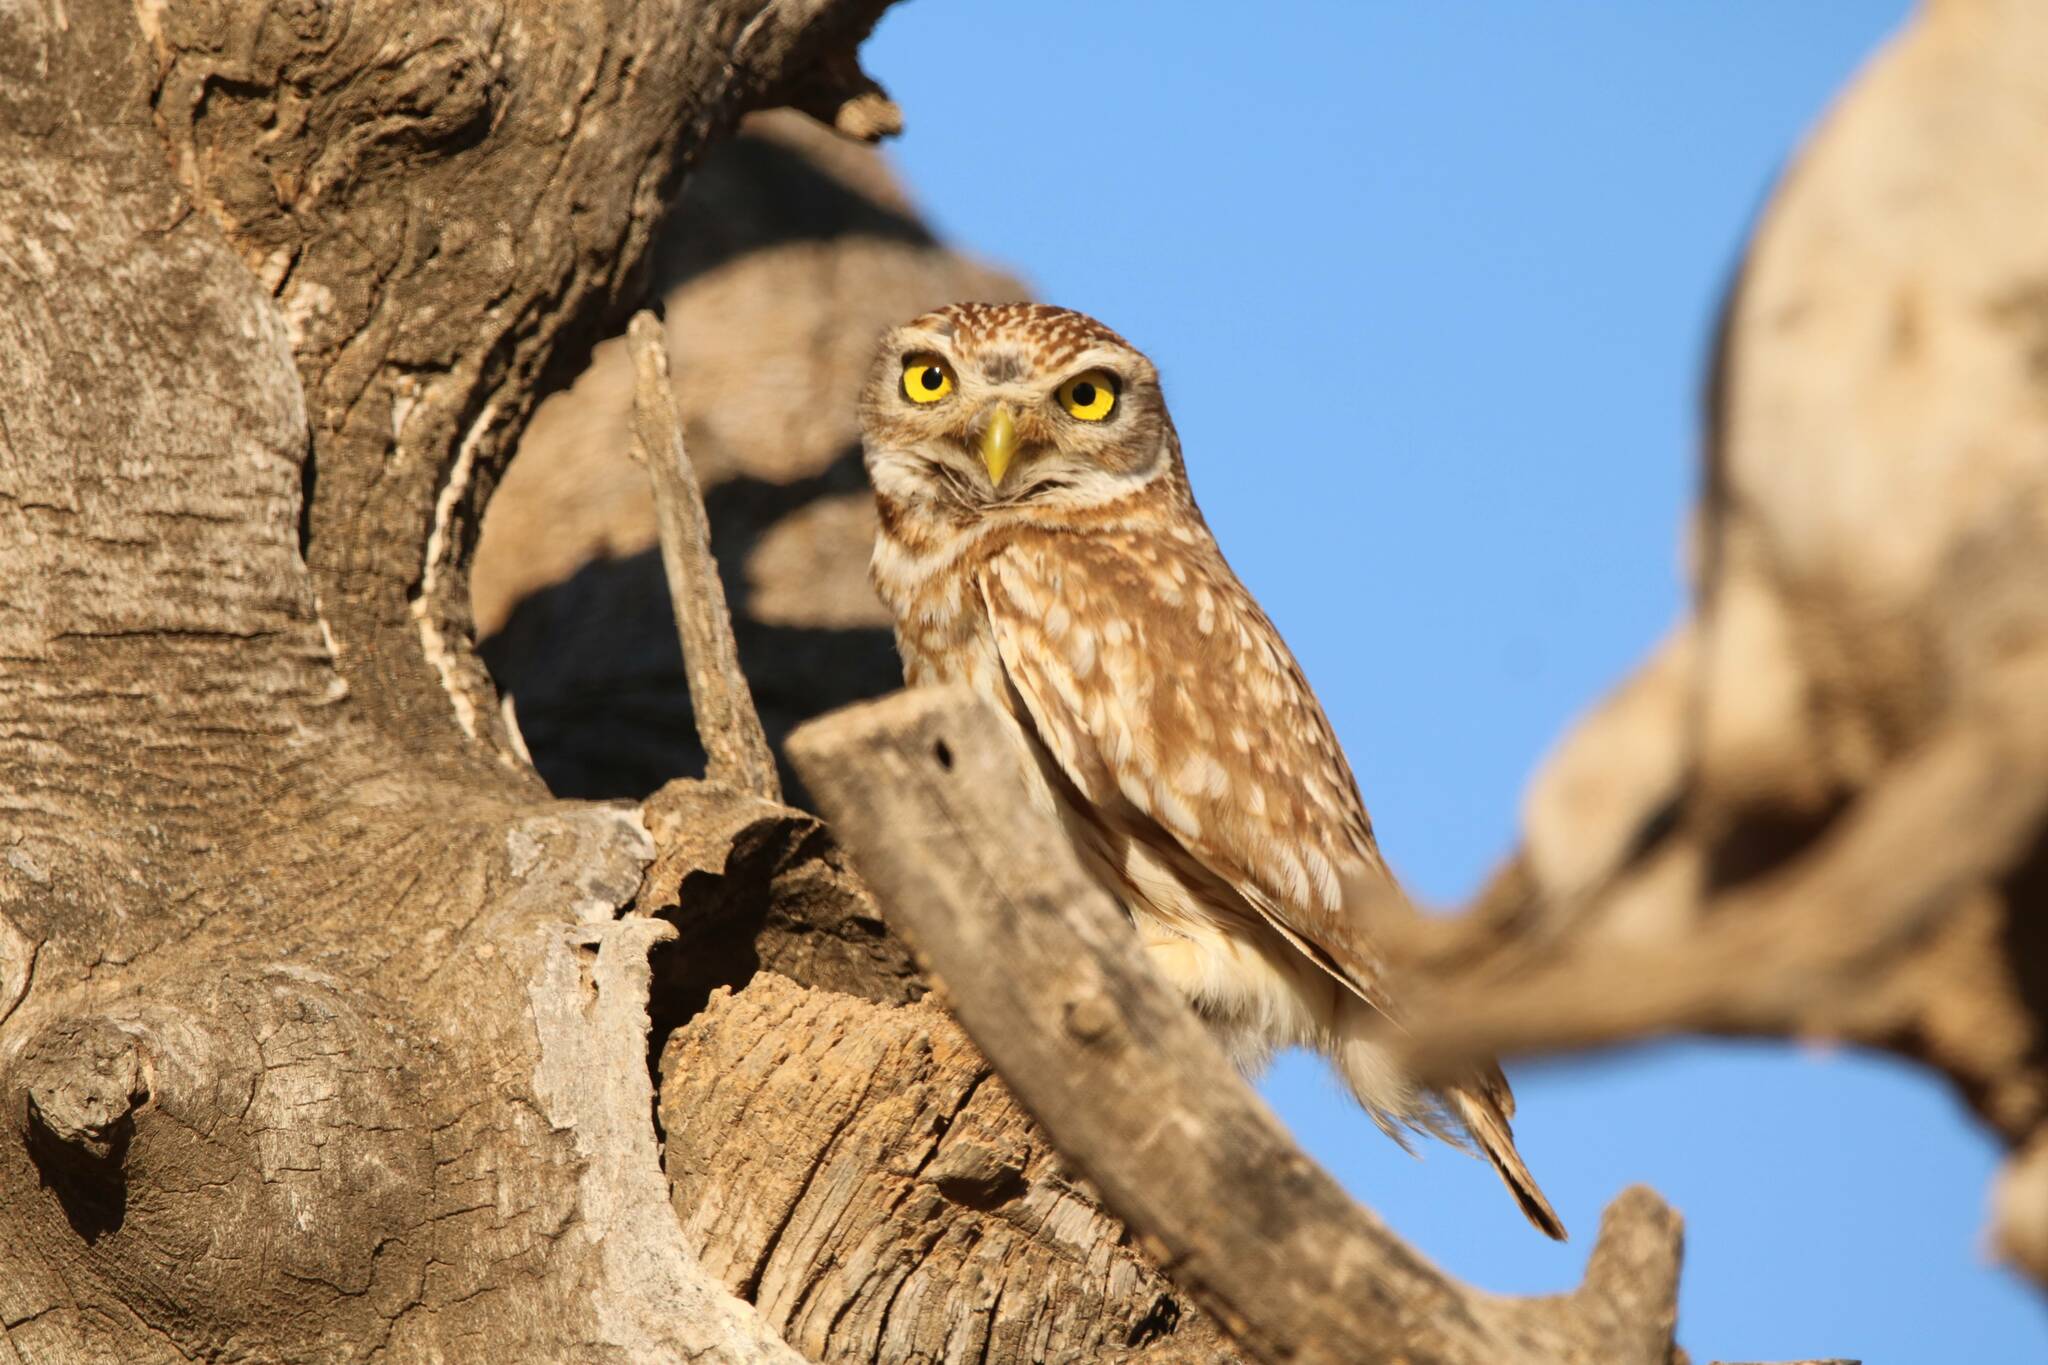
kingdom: Animalia
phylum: Chordata
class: Aves
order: Strigiformes
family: Strigidae
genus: Athene
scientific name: Athene noctua
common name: Little owl
